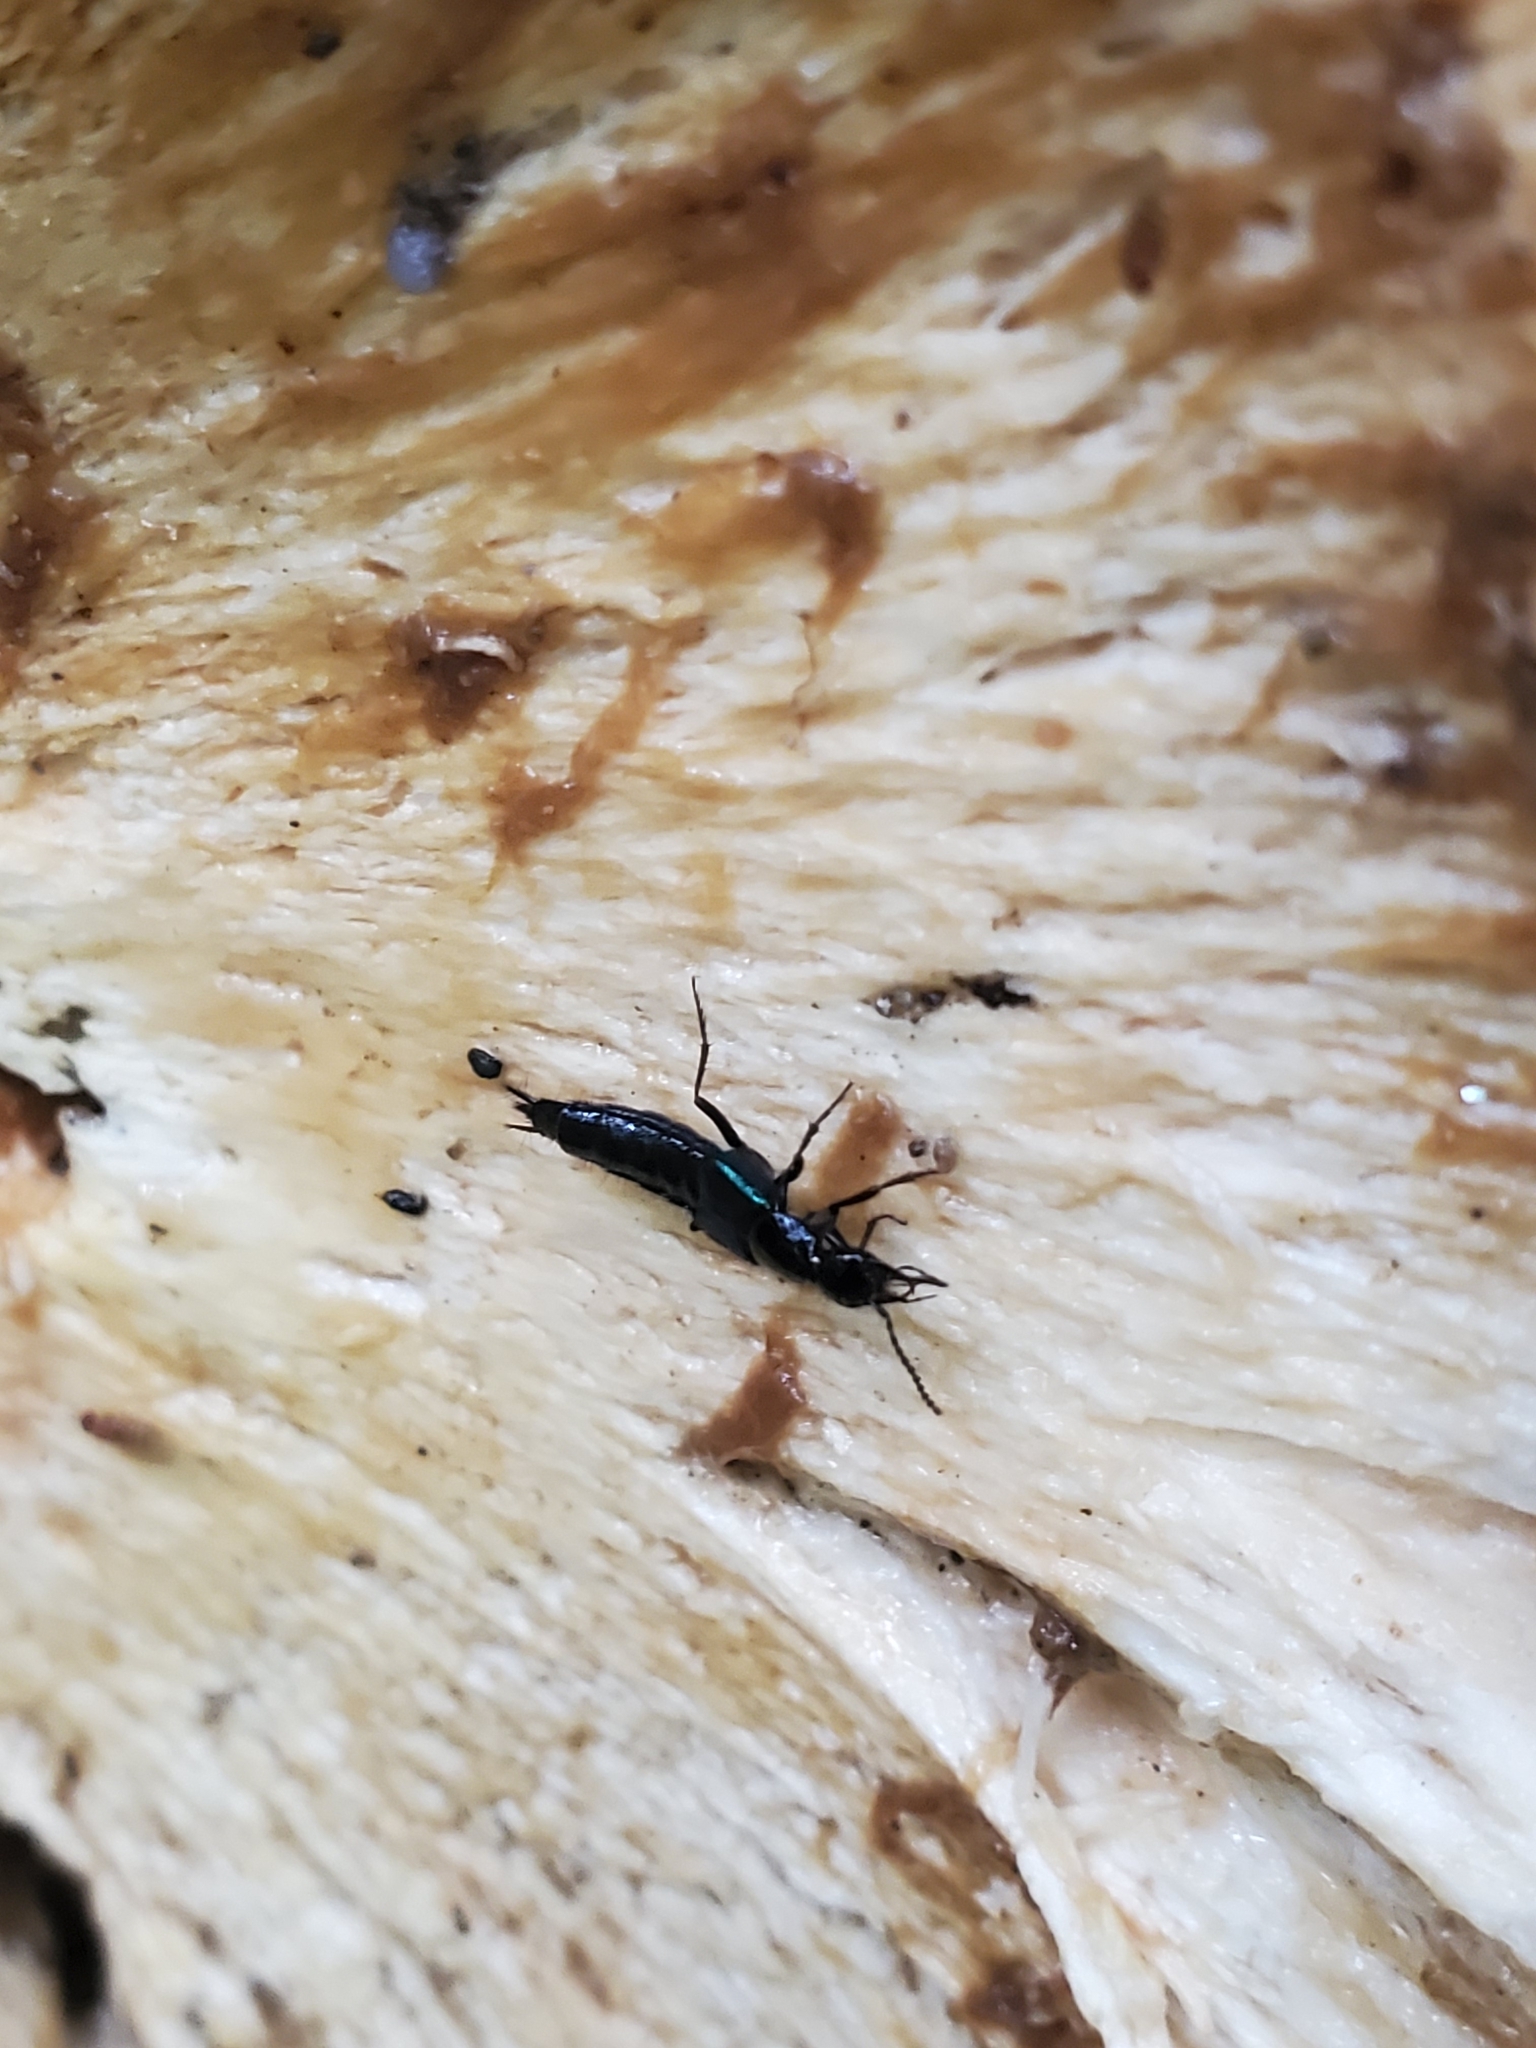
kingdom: Animalia
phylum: Arthropoda
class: Insecta
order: Coleoptera
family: Staphylinidae
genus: Philonthus
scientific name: Philonthus caeruleipennis
